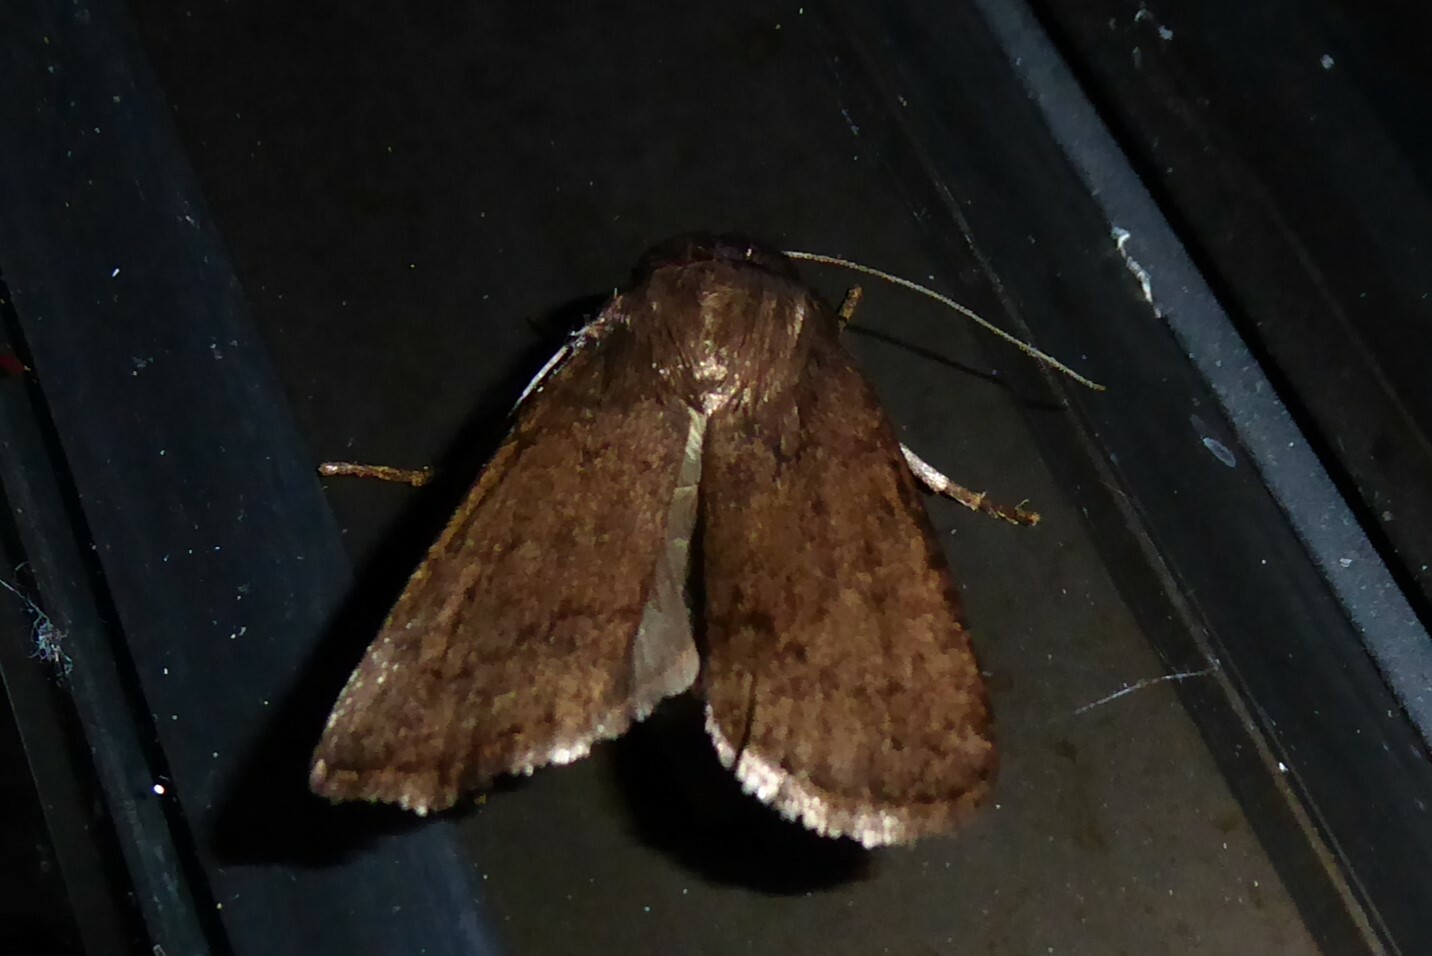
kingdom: Animalia
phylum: Arthropoda
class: Insecta
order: Lepidoptera
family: Noctuidae
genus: Bityla
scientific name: Bityla defigurata
